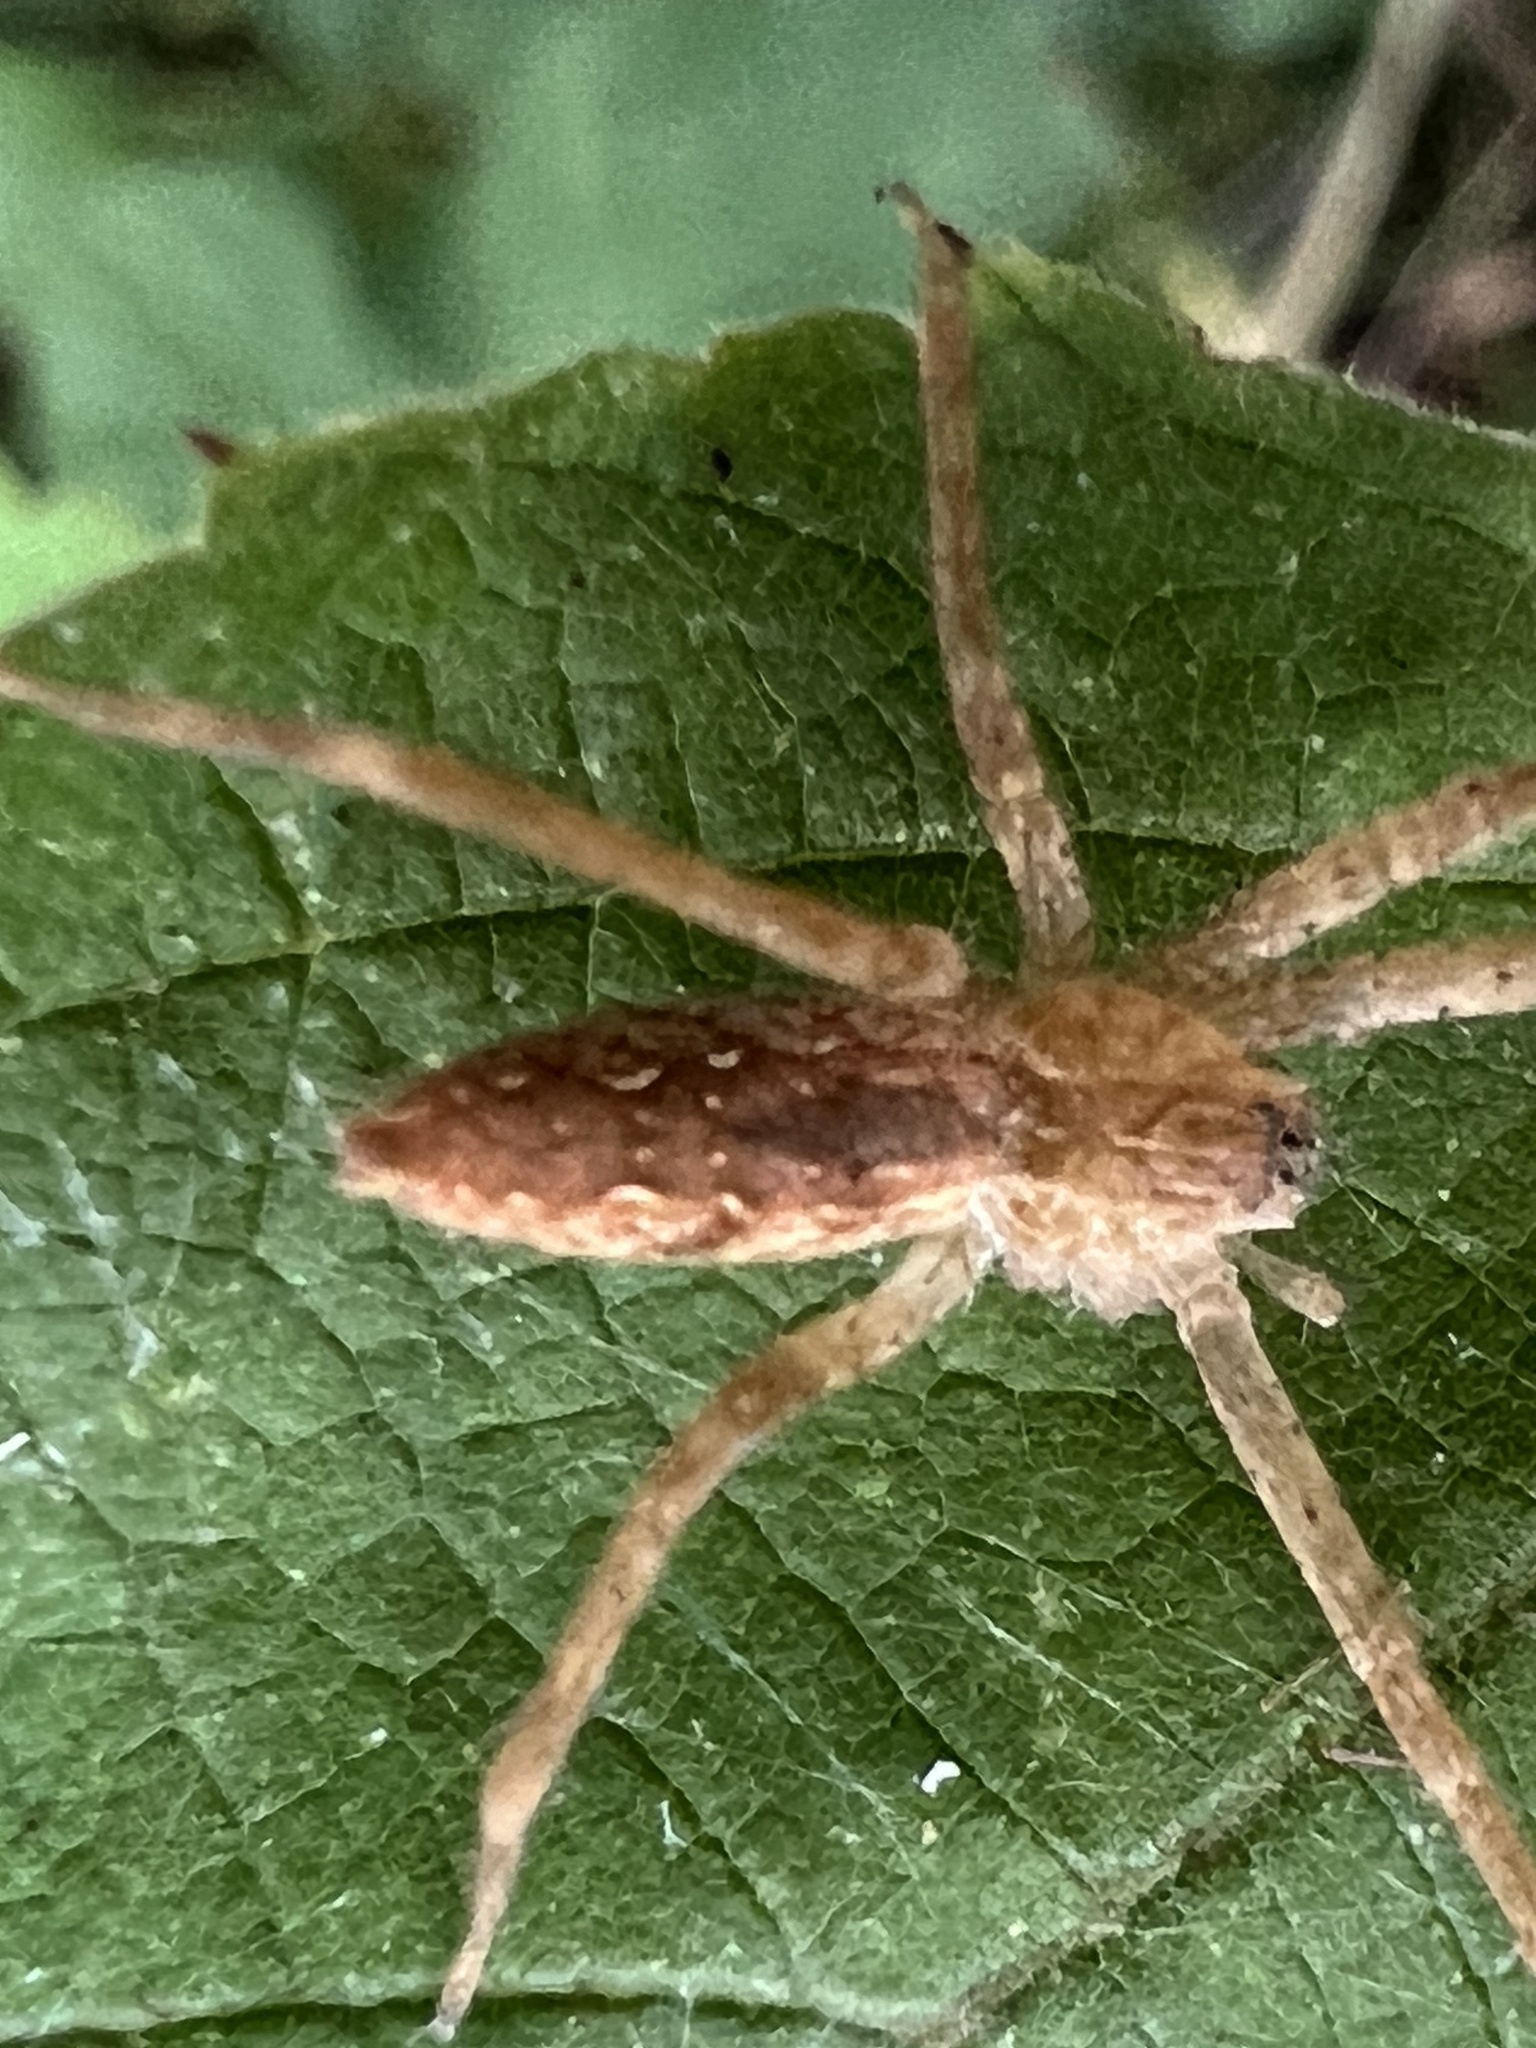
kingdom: Animalia
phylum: Arthropoda
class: Arachnida
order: Araneae
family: Pisauridae
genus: Pisaurina
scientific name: Pisaurina mira
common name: American nursery web spider
